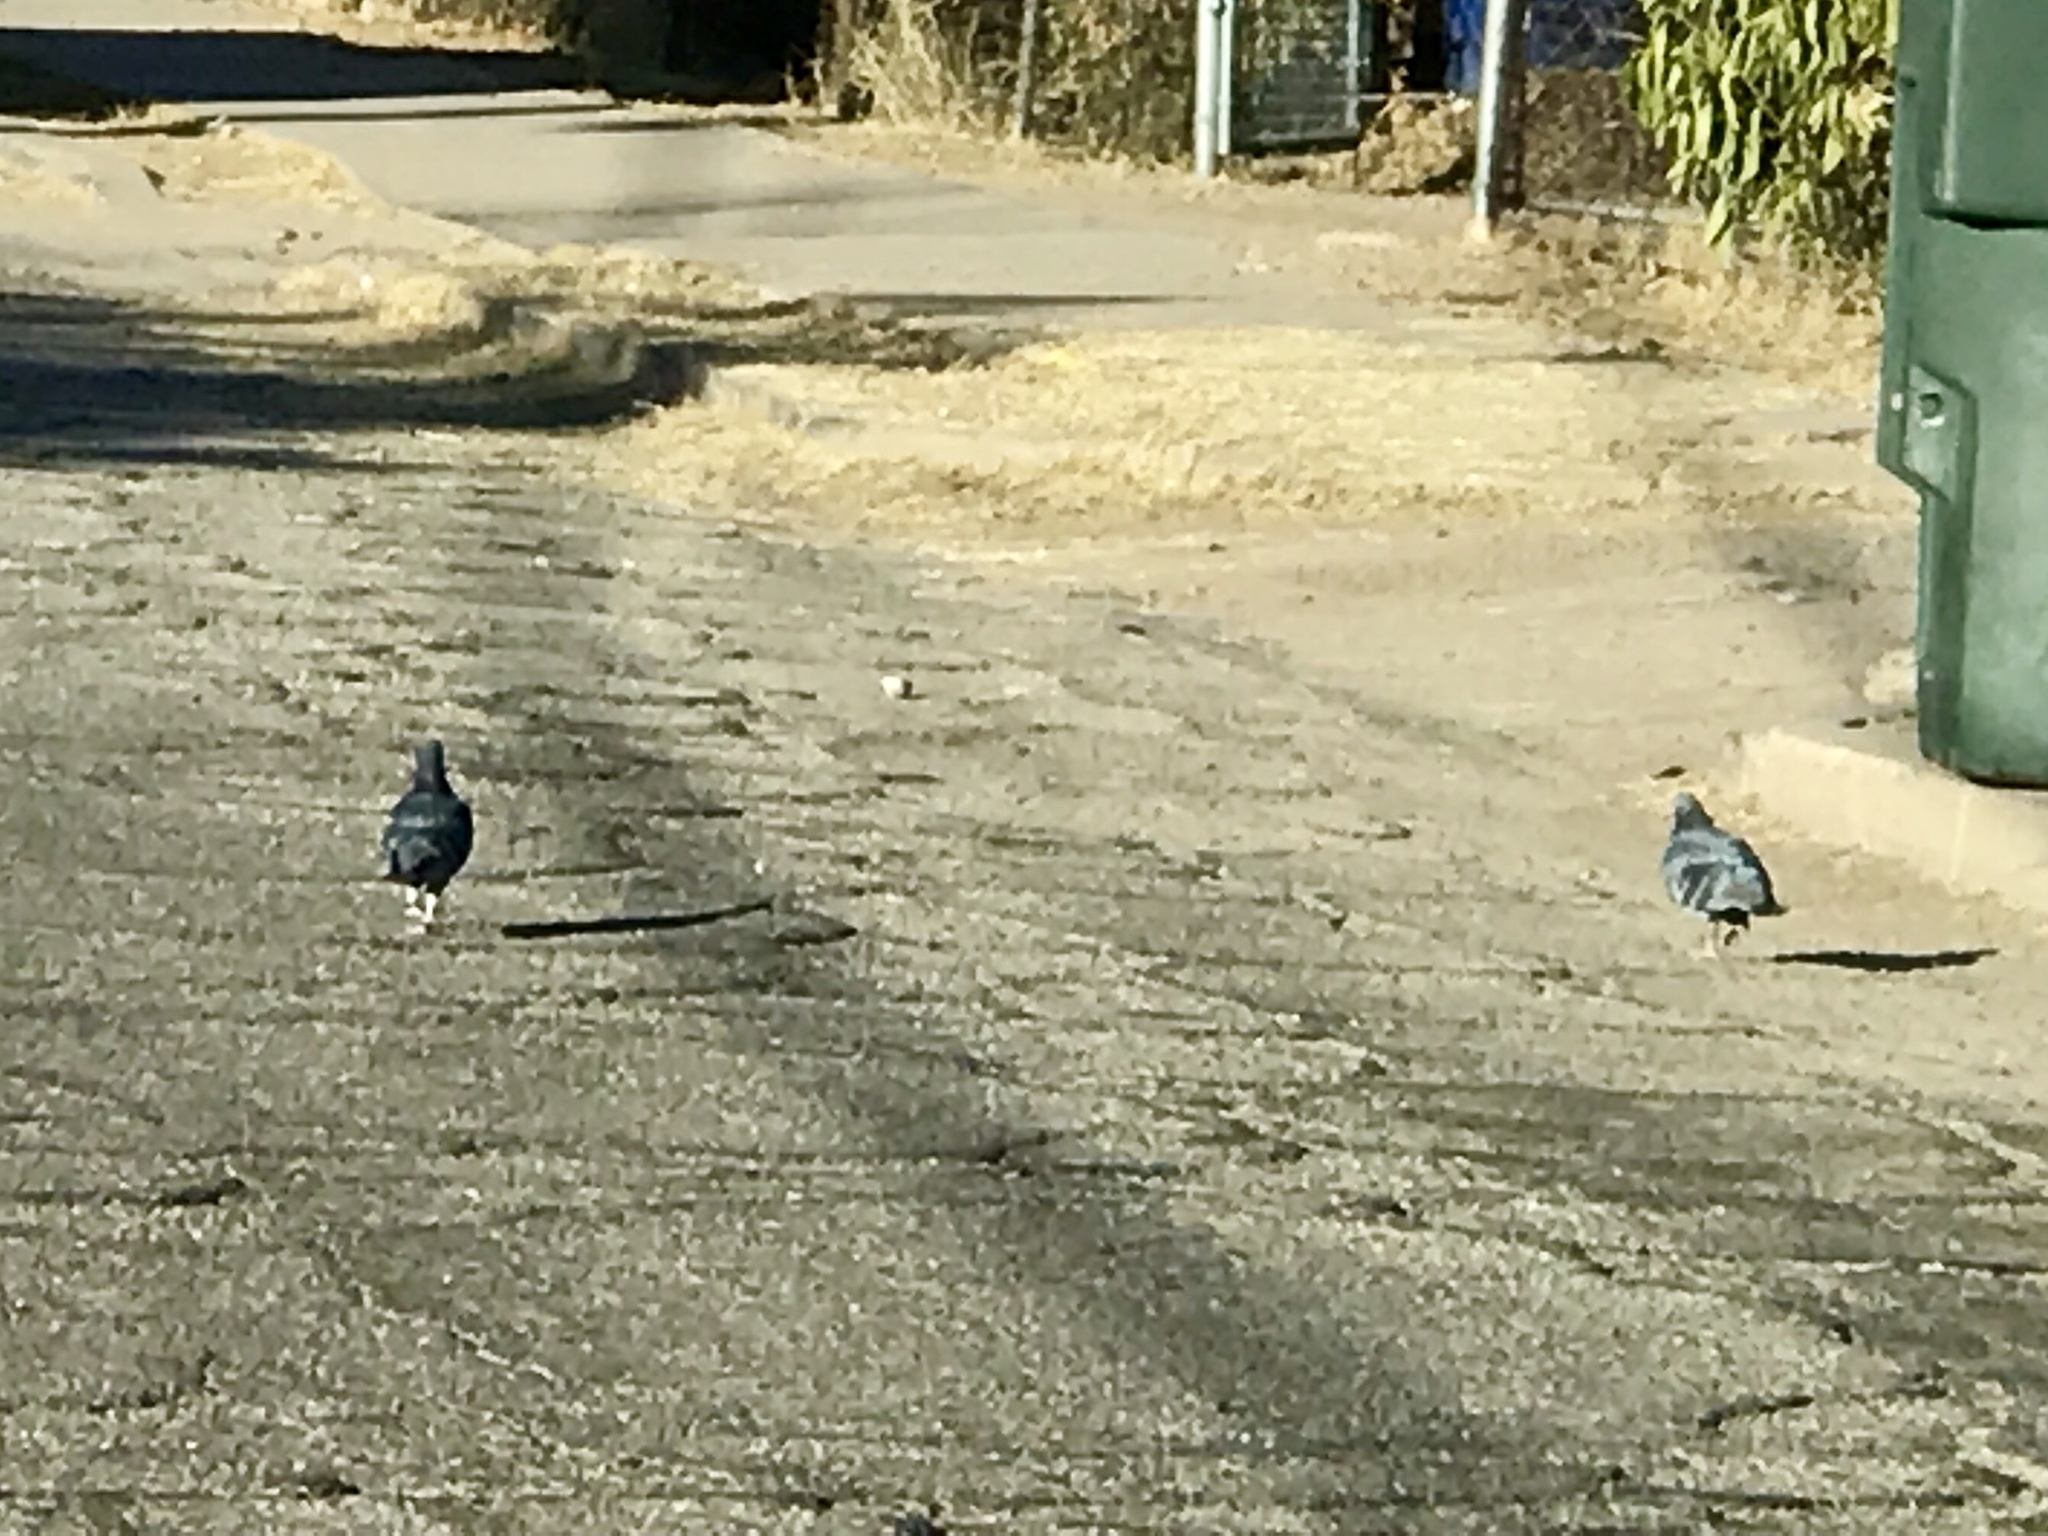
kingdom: Animalia
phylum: Chordata
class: Aves
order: Columbiformes
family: Columbidae
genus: Columba
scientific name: Columba livia
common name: Rock pigeon
